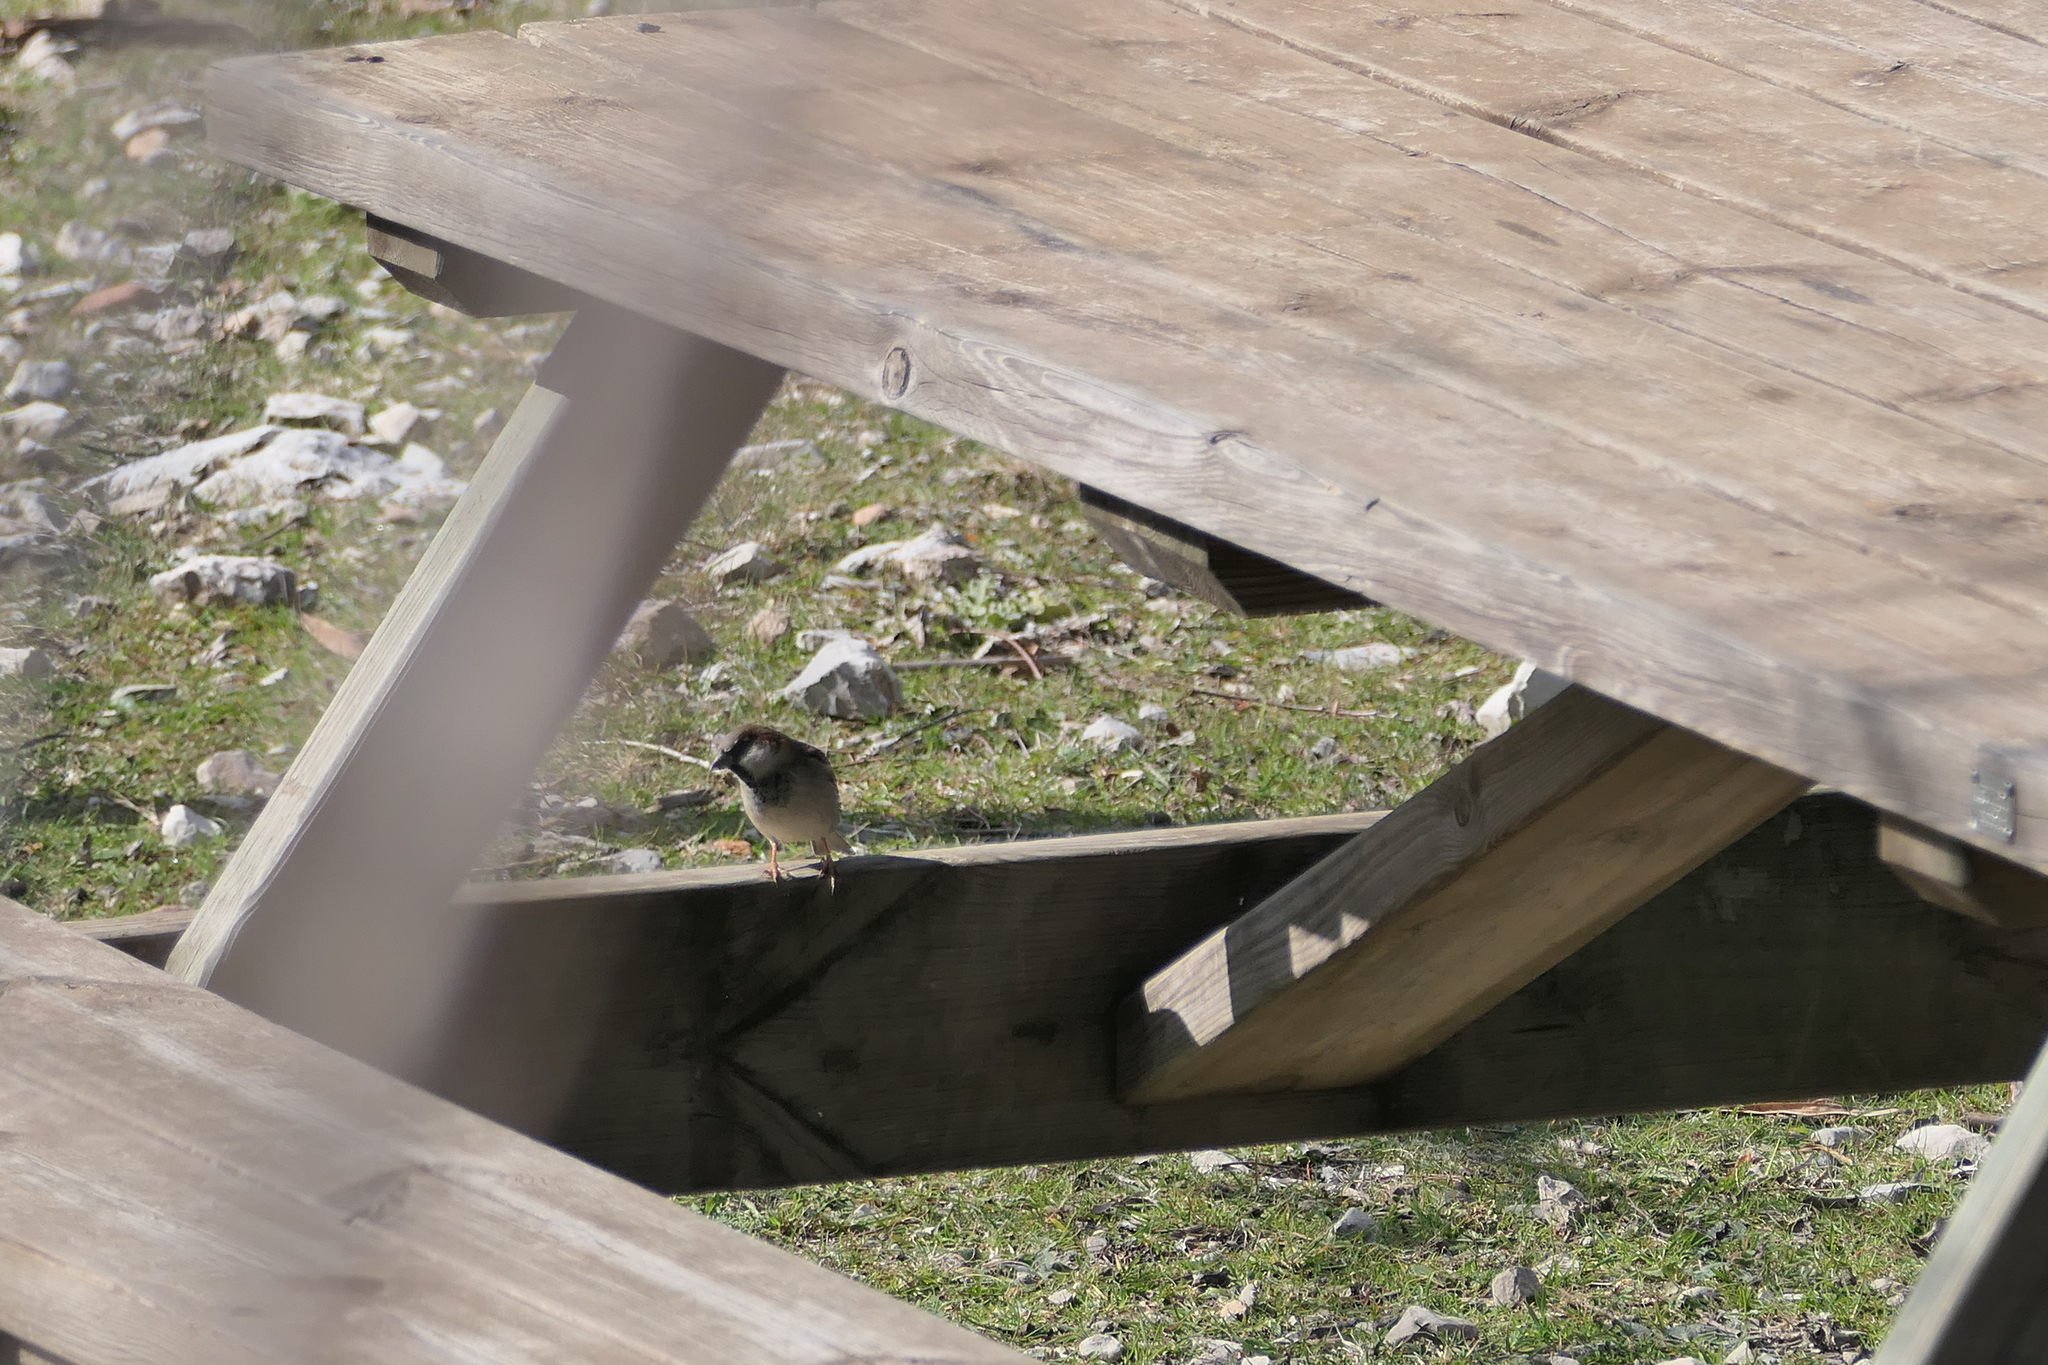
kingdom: Animalia
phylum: Chordata
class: Aves
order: Passeriformes
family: Passeridae
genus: Passer
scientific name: Passer domesticus
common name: House sparrow
